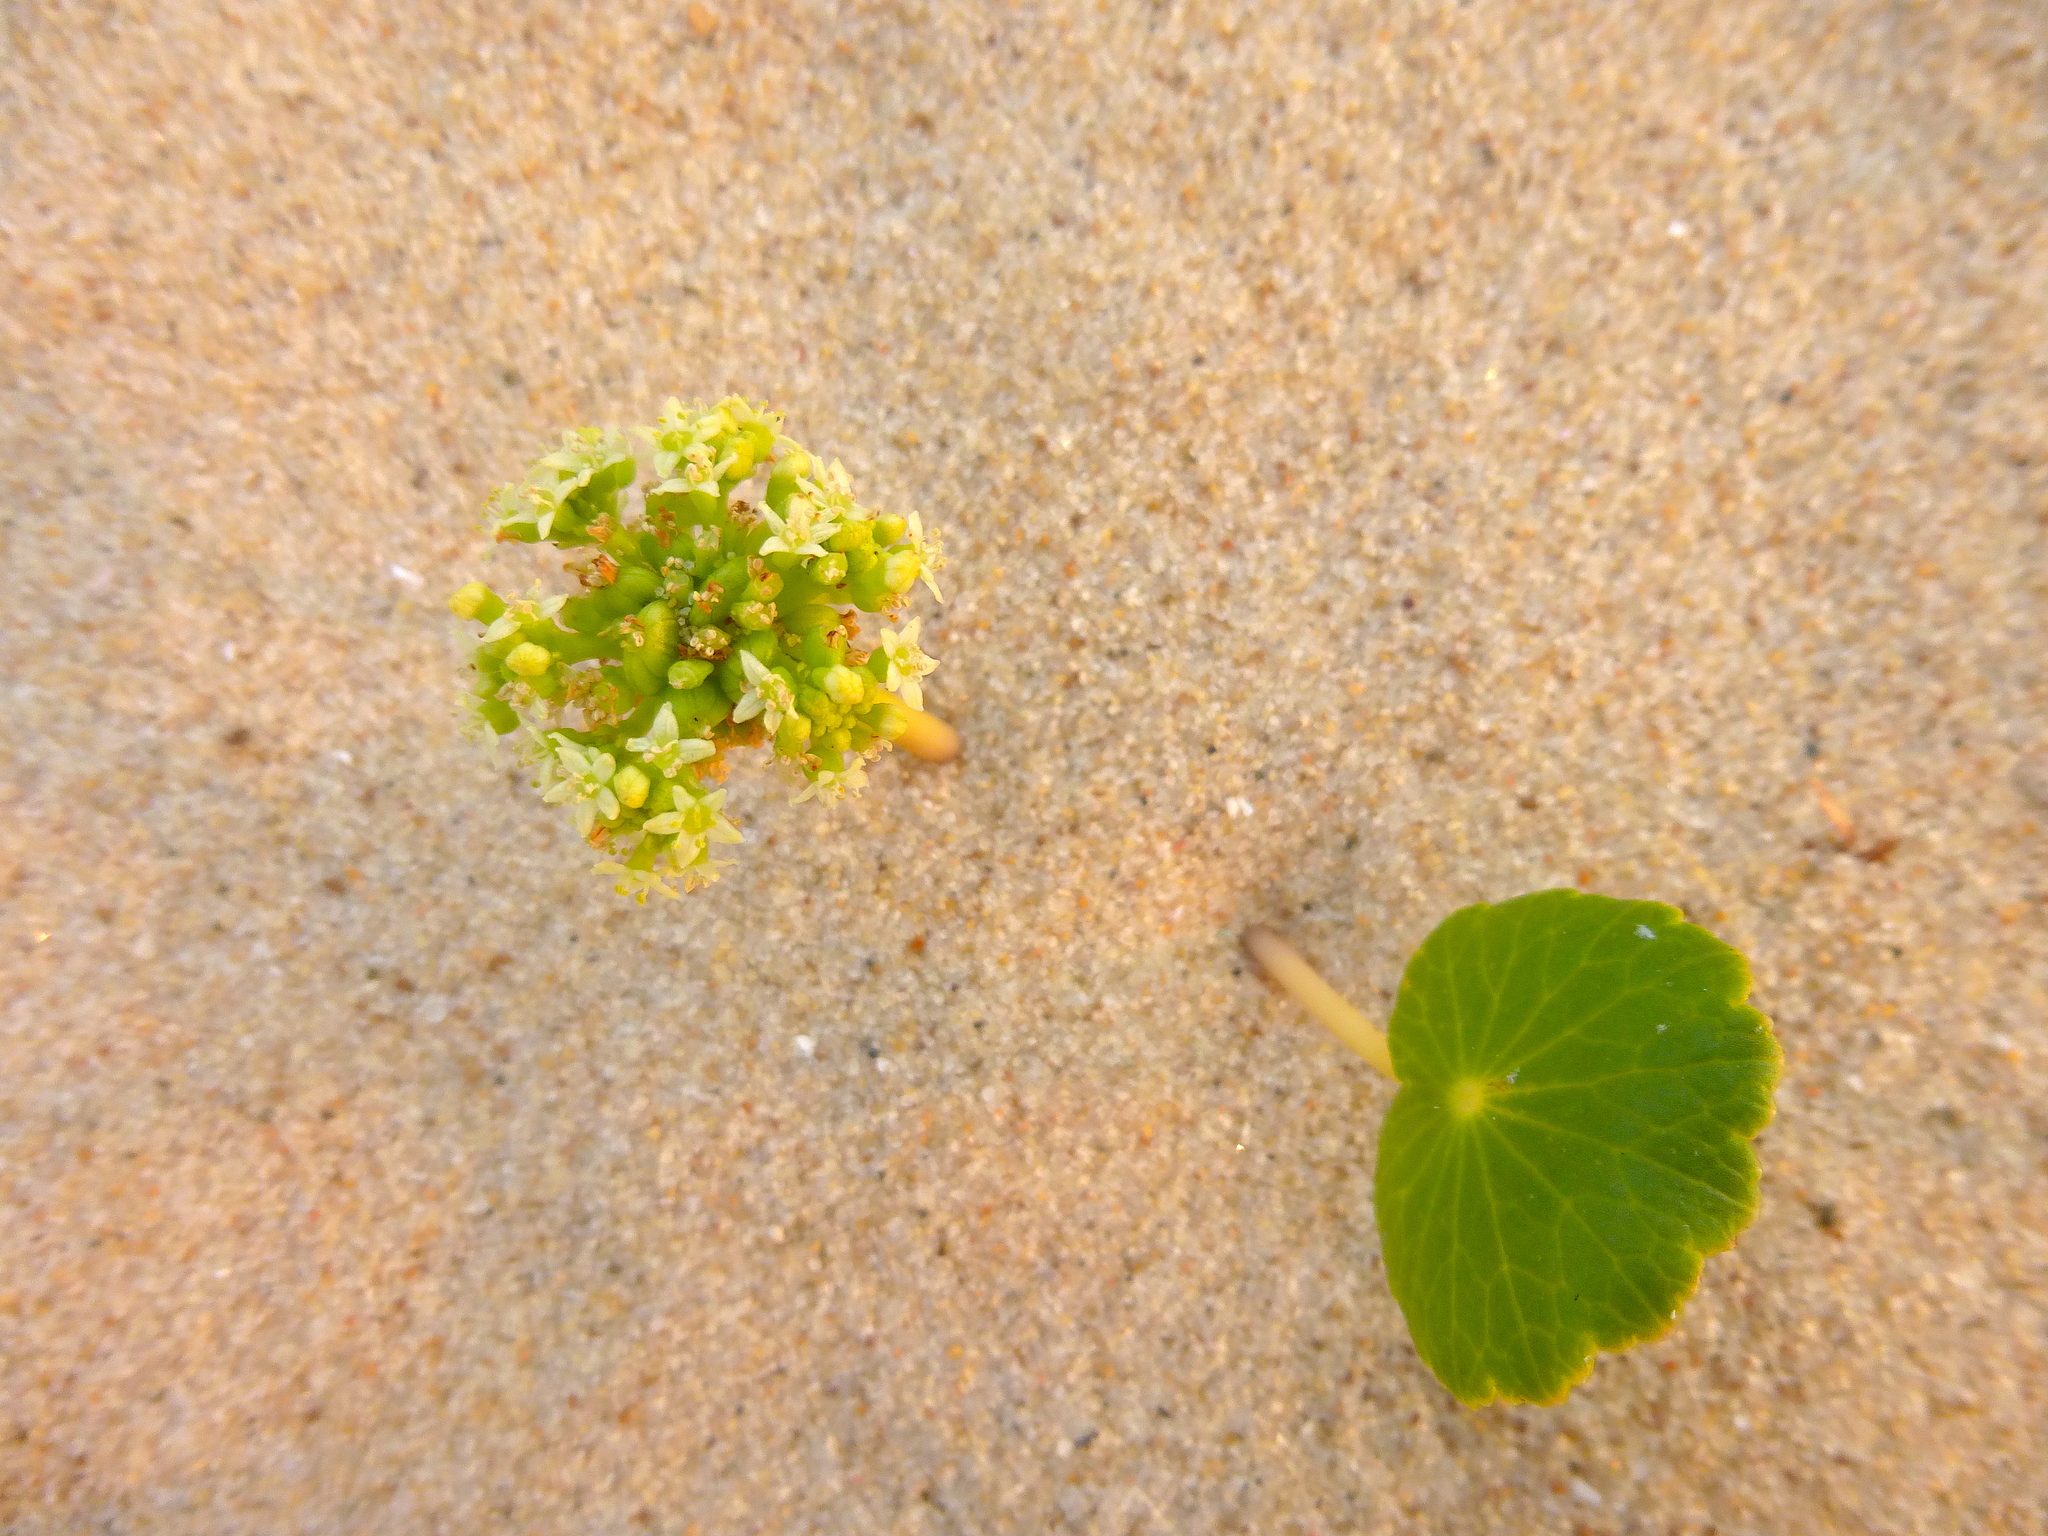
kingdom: Plantae
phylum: Tracheophyta
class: Magnoliopsida
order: Apiales
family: Araliaceae
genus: Hydrocotyle
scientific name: Hydrocotyle bonariensis
